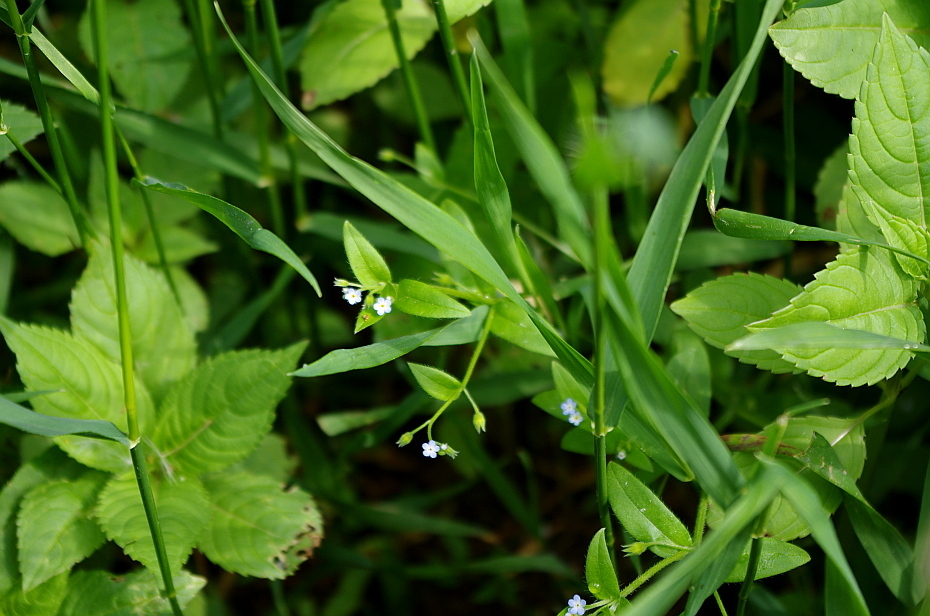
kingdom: Plantae
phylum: Tracheophyta
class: Magnoliopsida
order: Boraginales
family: Boraginaceae
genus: Myosotis
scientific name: Myosotis sparsiflora
